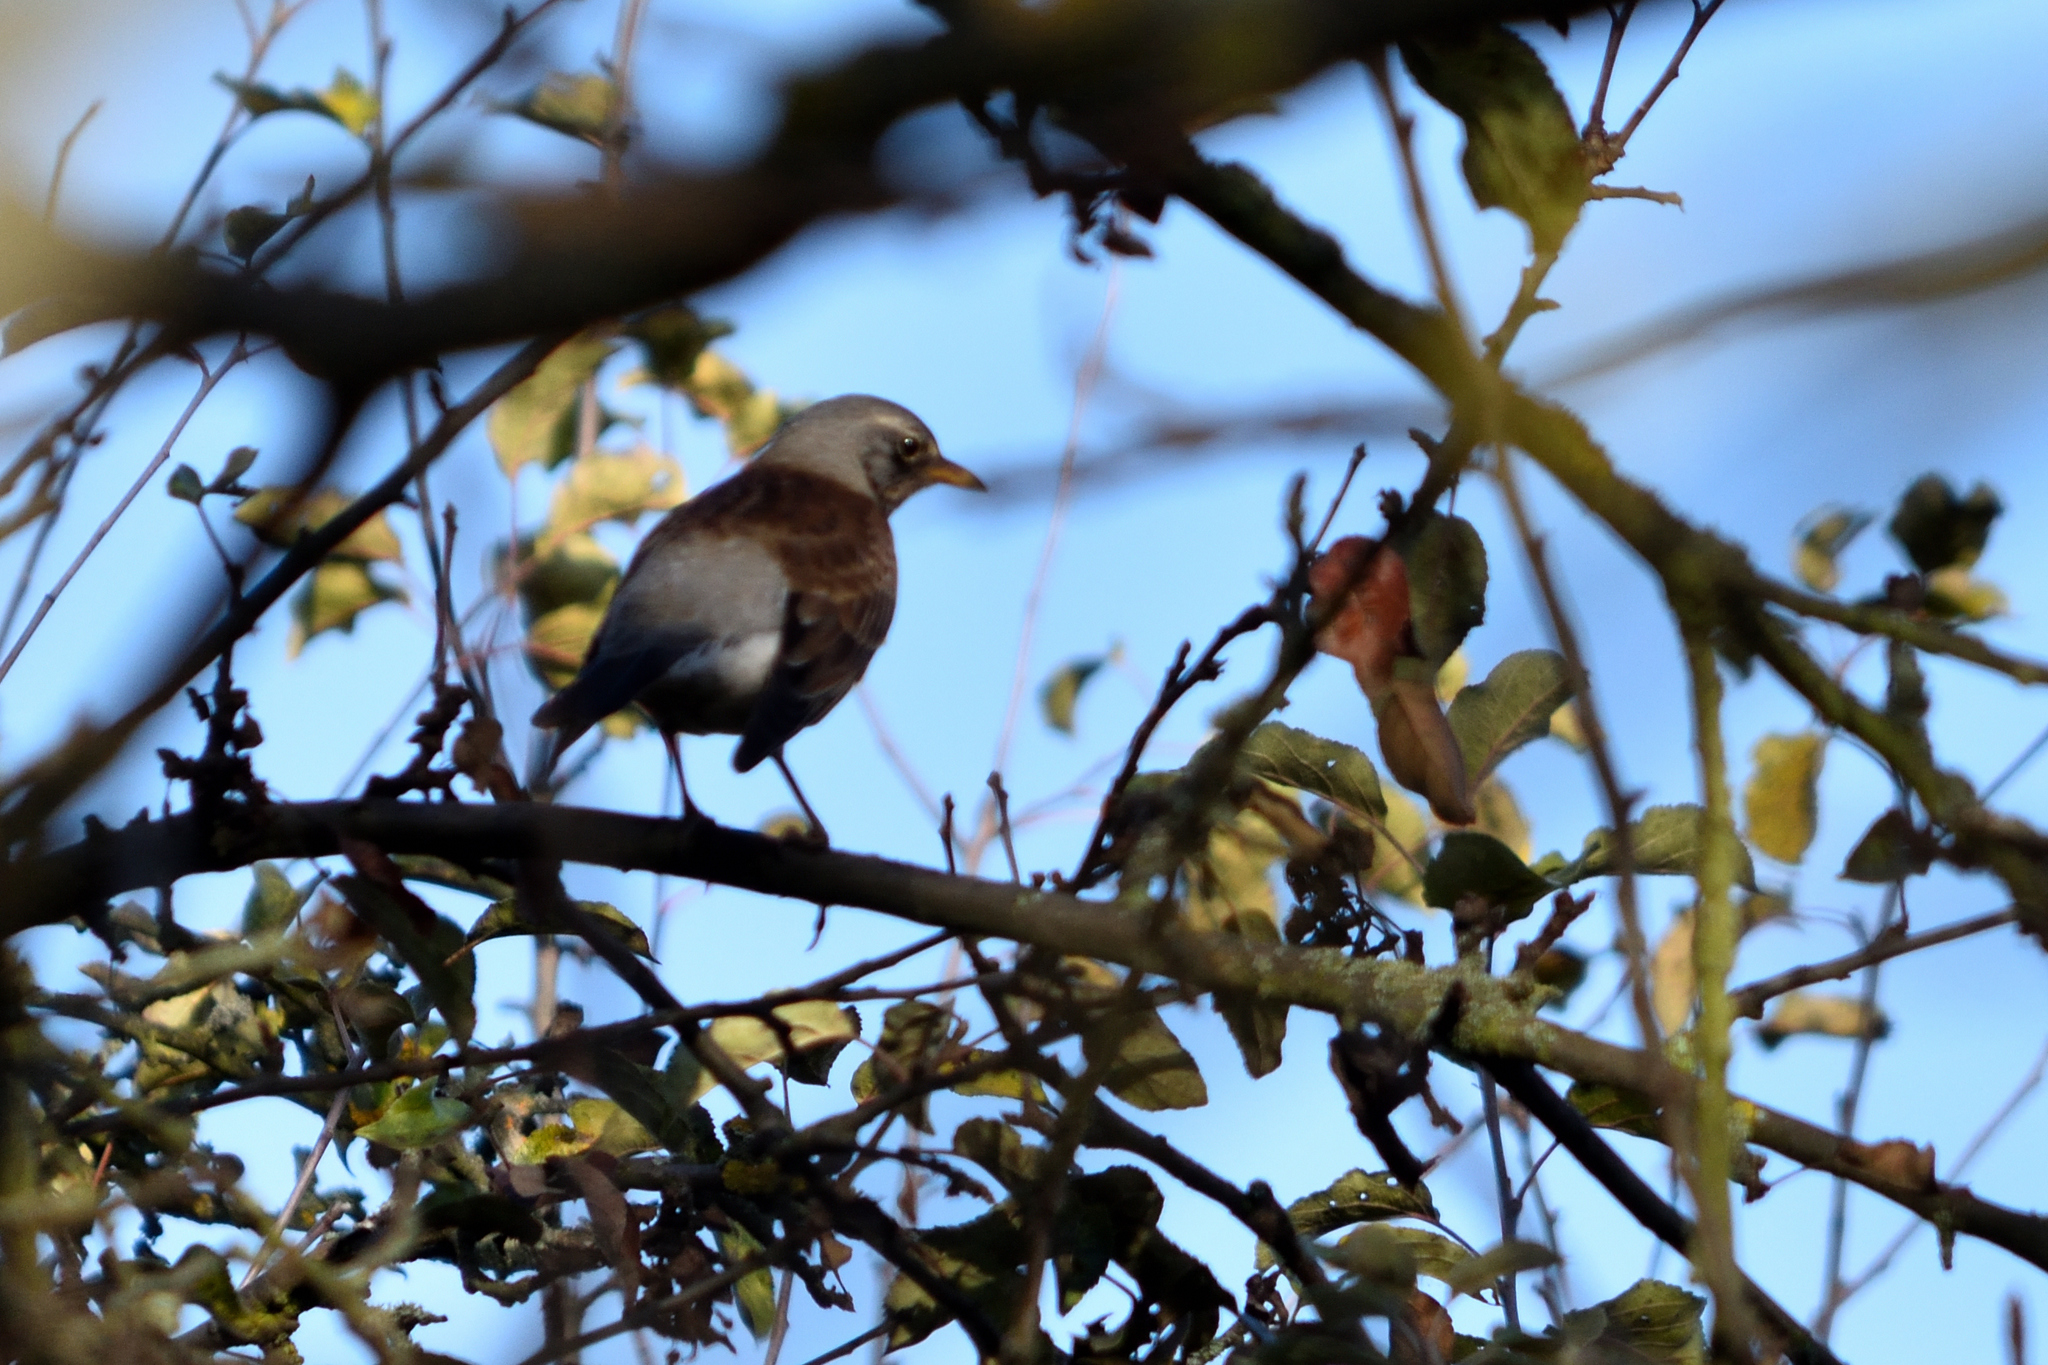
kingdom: Animalia
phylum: Chordata
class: Aves
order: Passeriformes
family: Turdidae
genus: Turdus
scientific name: Turdus pilaris
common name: Fieldfare
